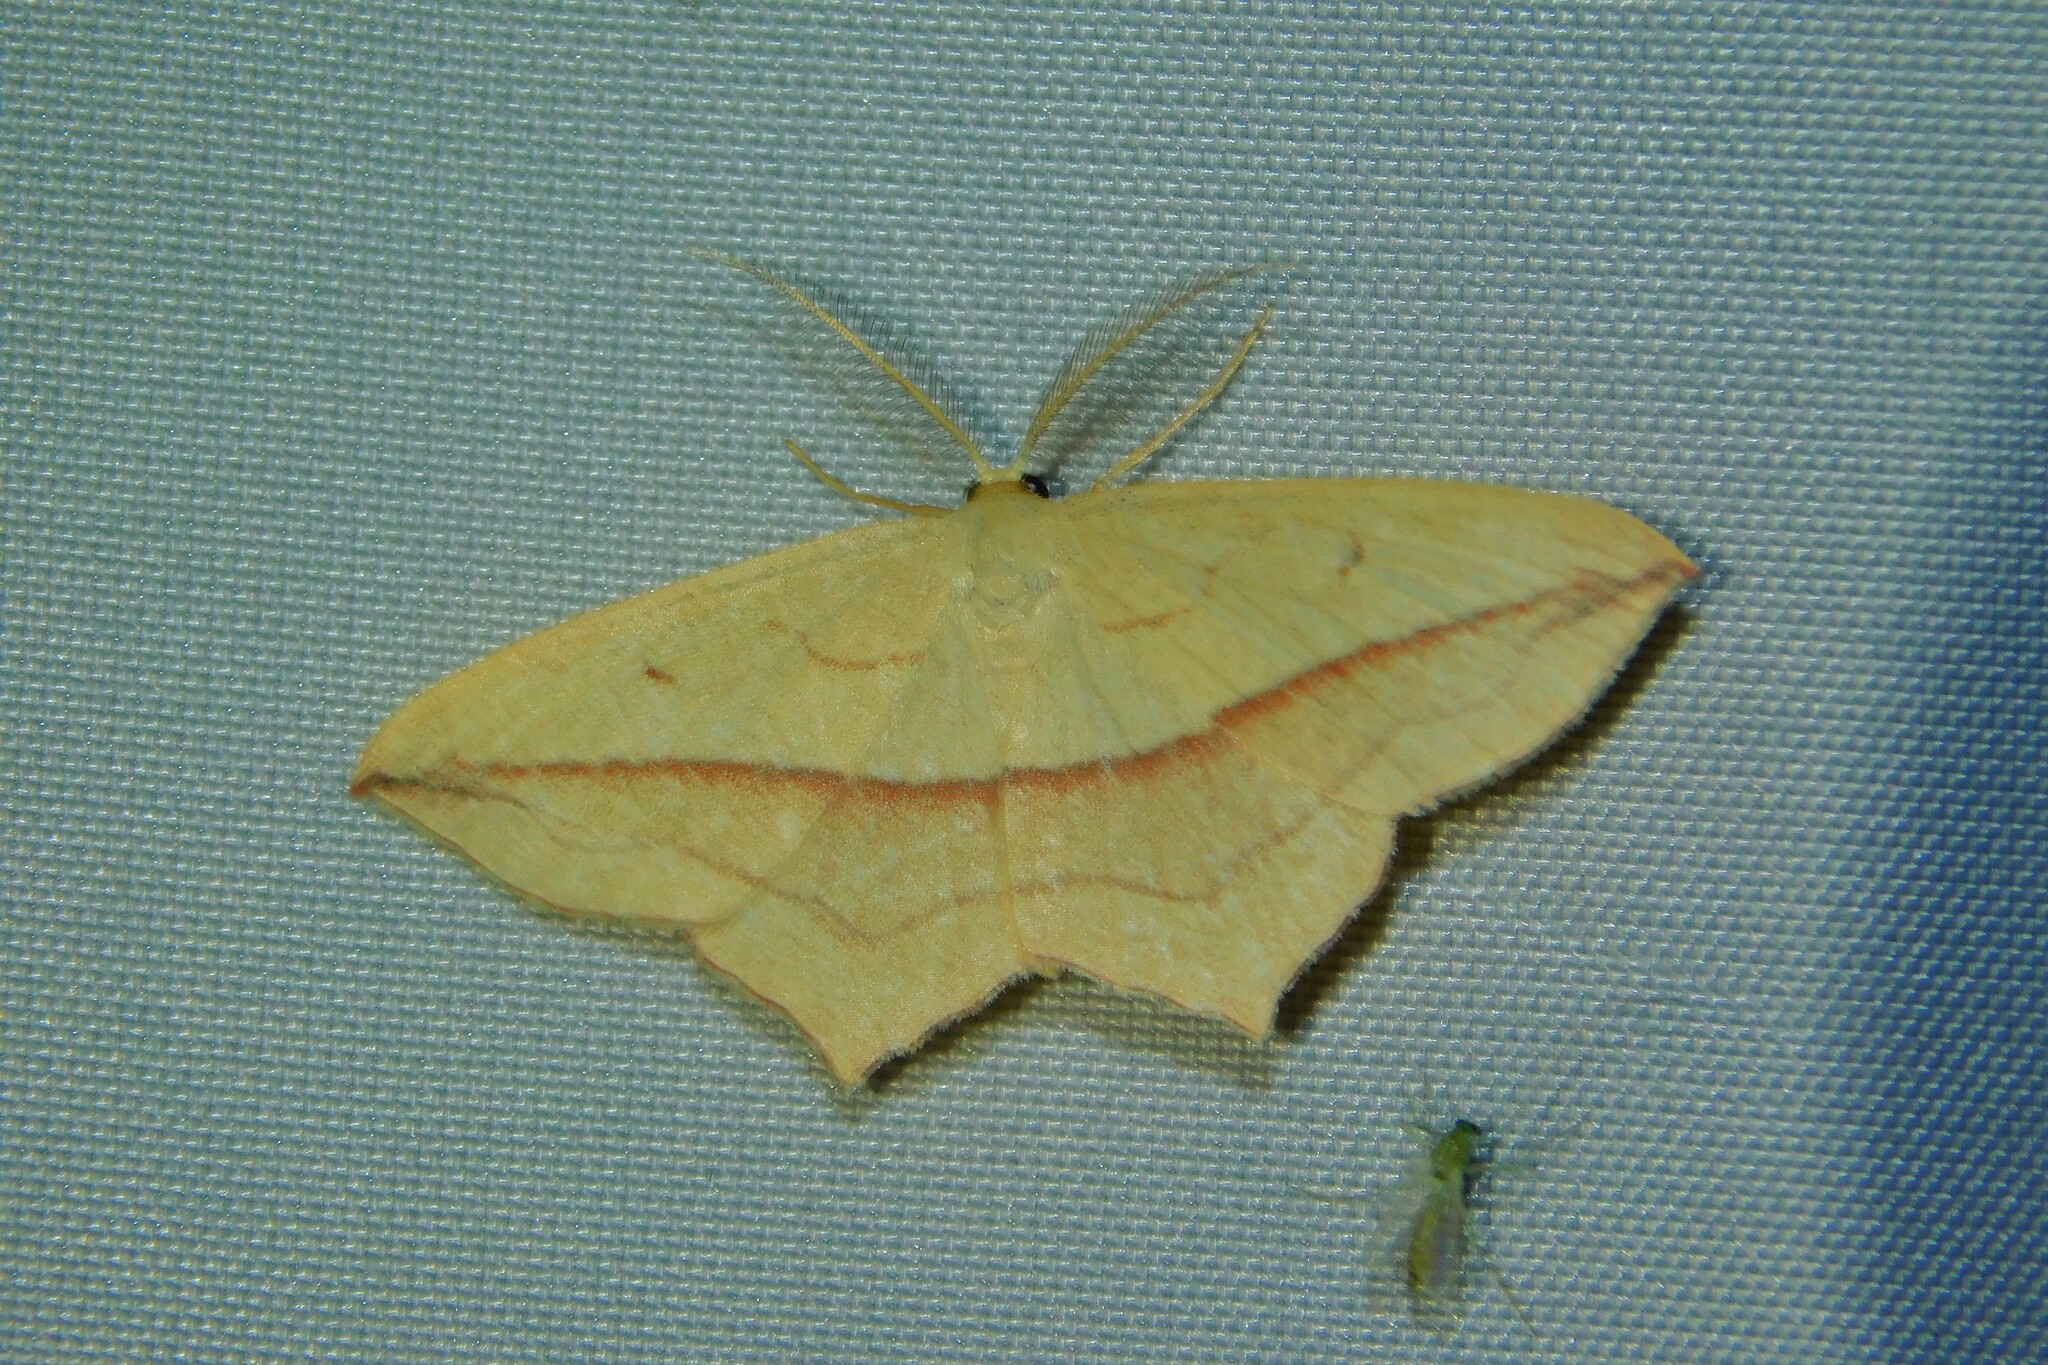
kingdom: Animalia
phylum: Arthropoda
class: Insecta
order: Lepidoptera
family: Geometridae
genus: Timandra
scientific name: Timandra comae
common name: Blood-vein
